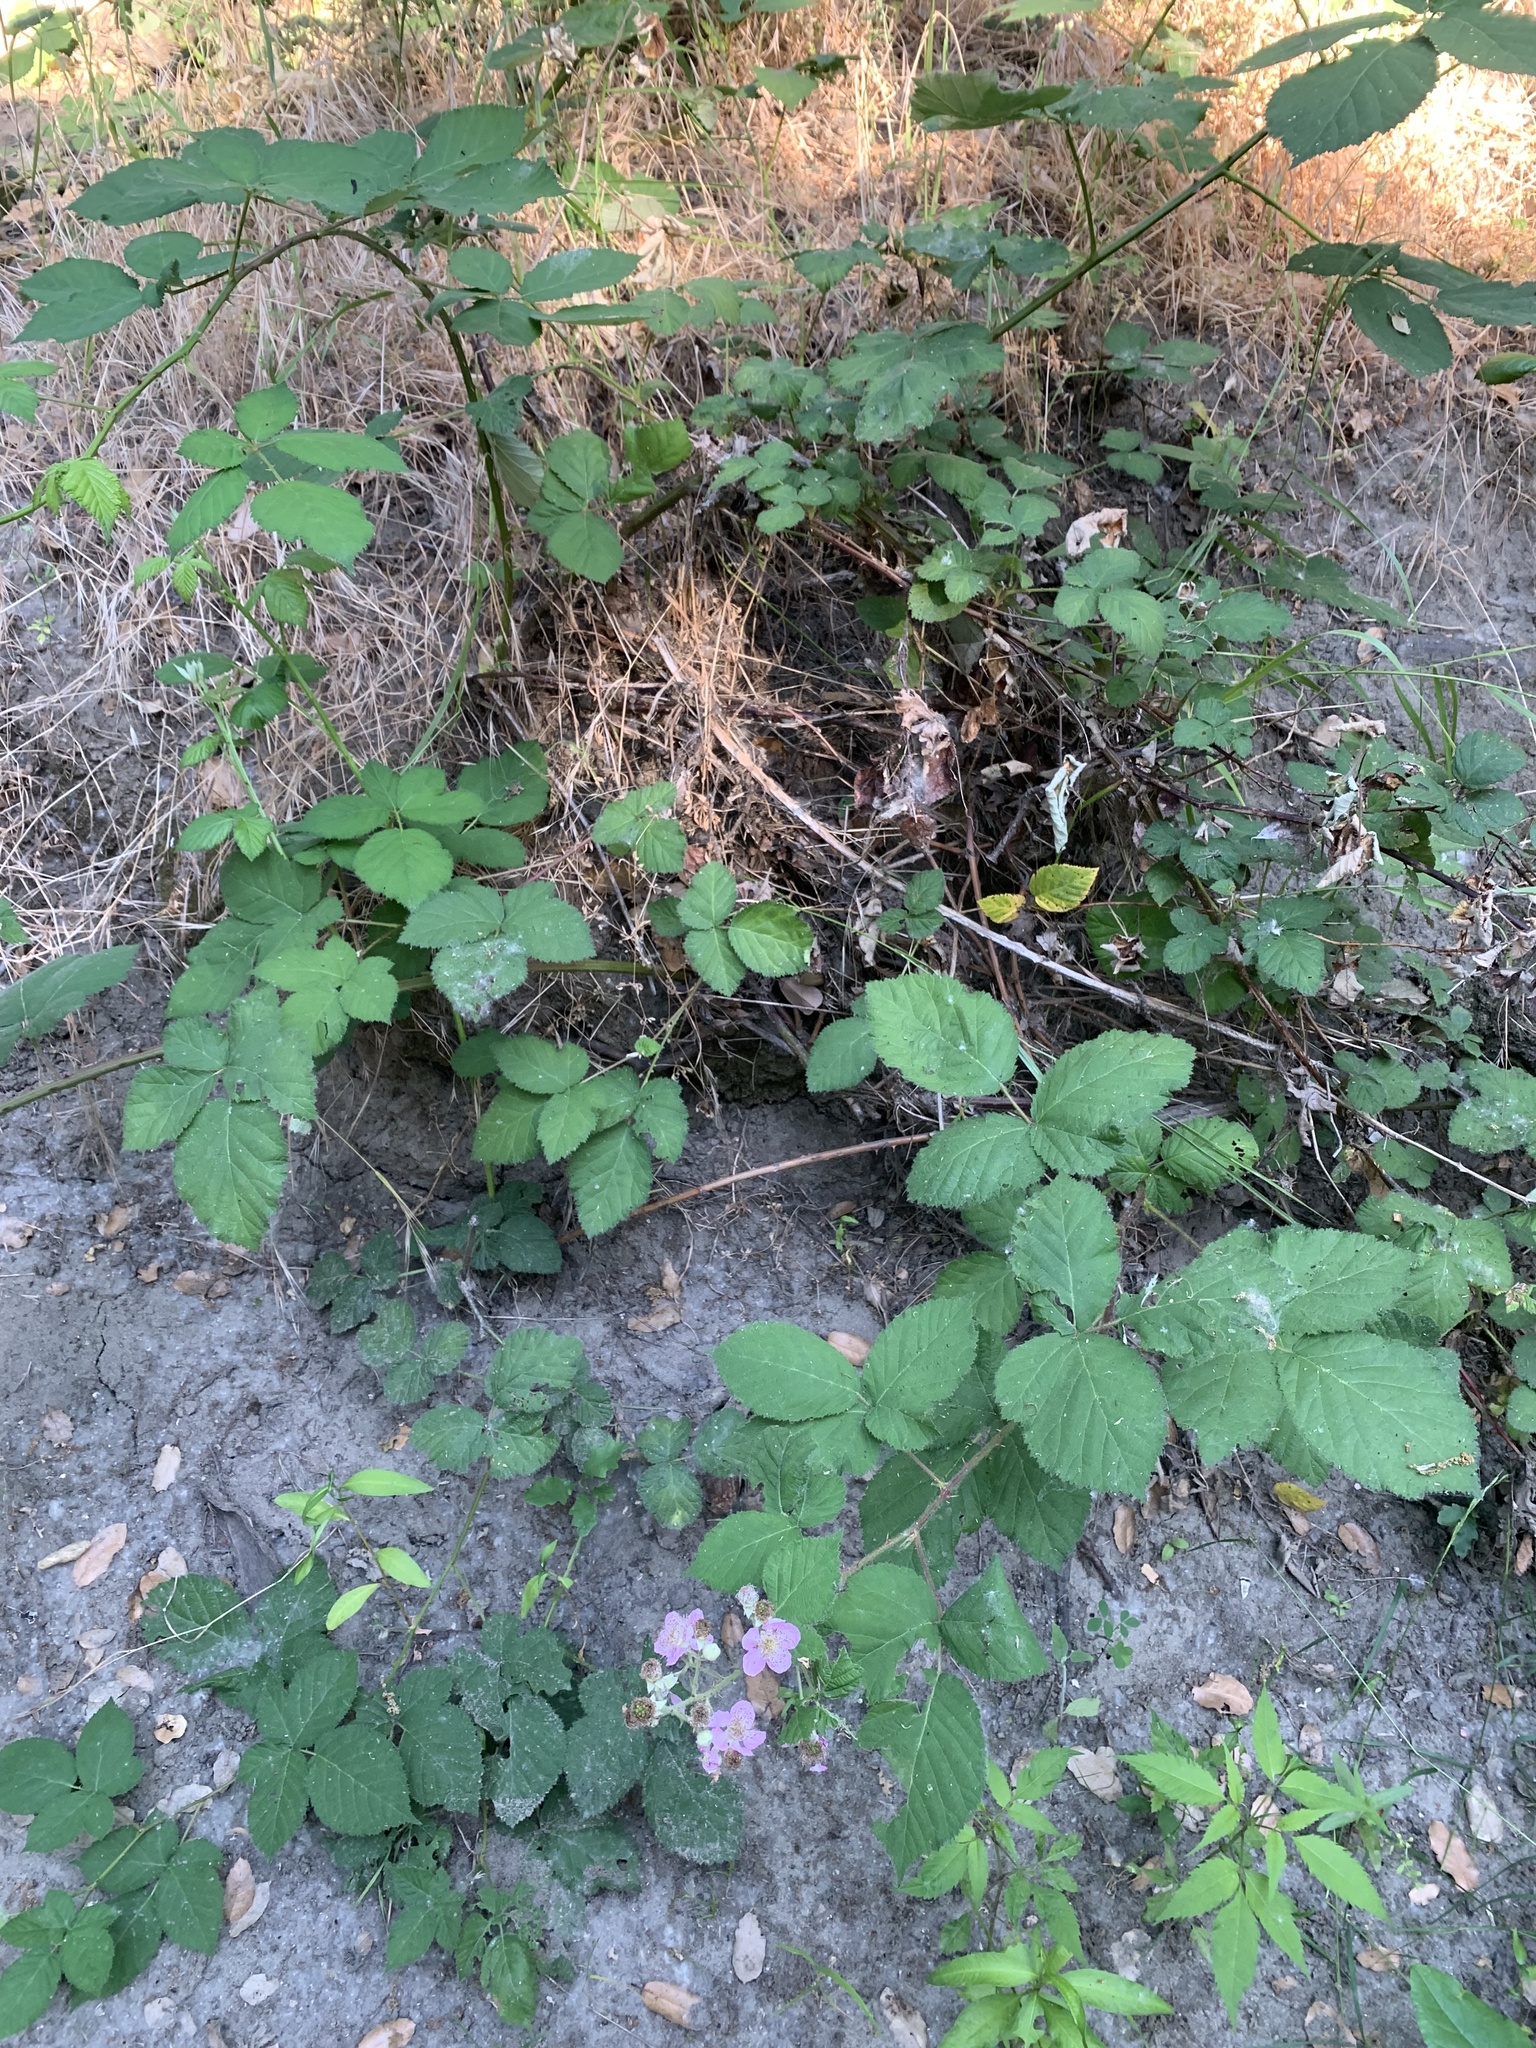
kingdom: Plantae
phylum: Tracheophyta
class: Magnoliopsida
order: Rosales
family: Rosaceae
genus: Rubus
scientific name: Rubus armeniacus
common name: Himalayan blackberry
